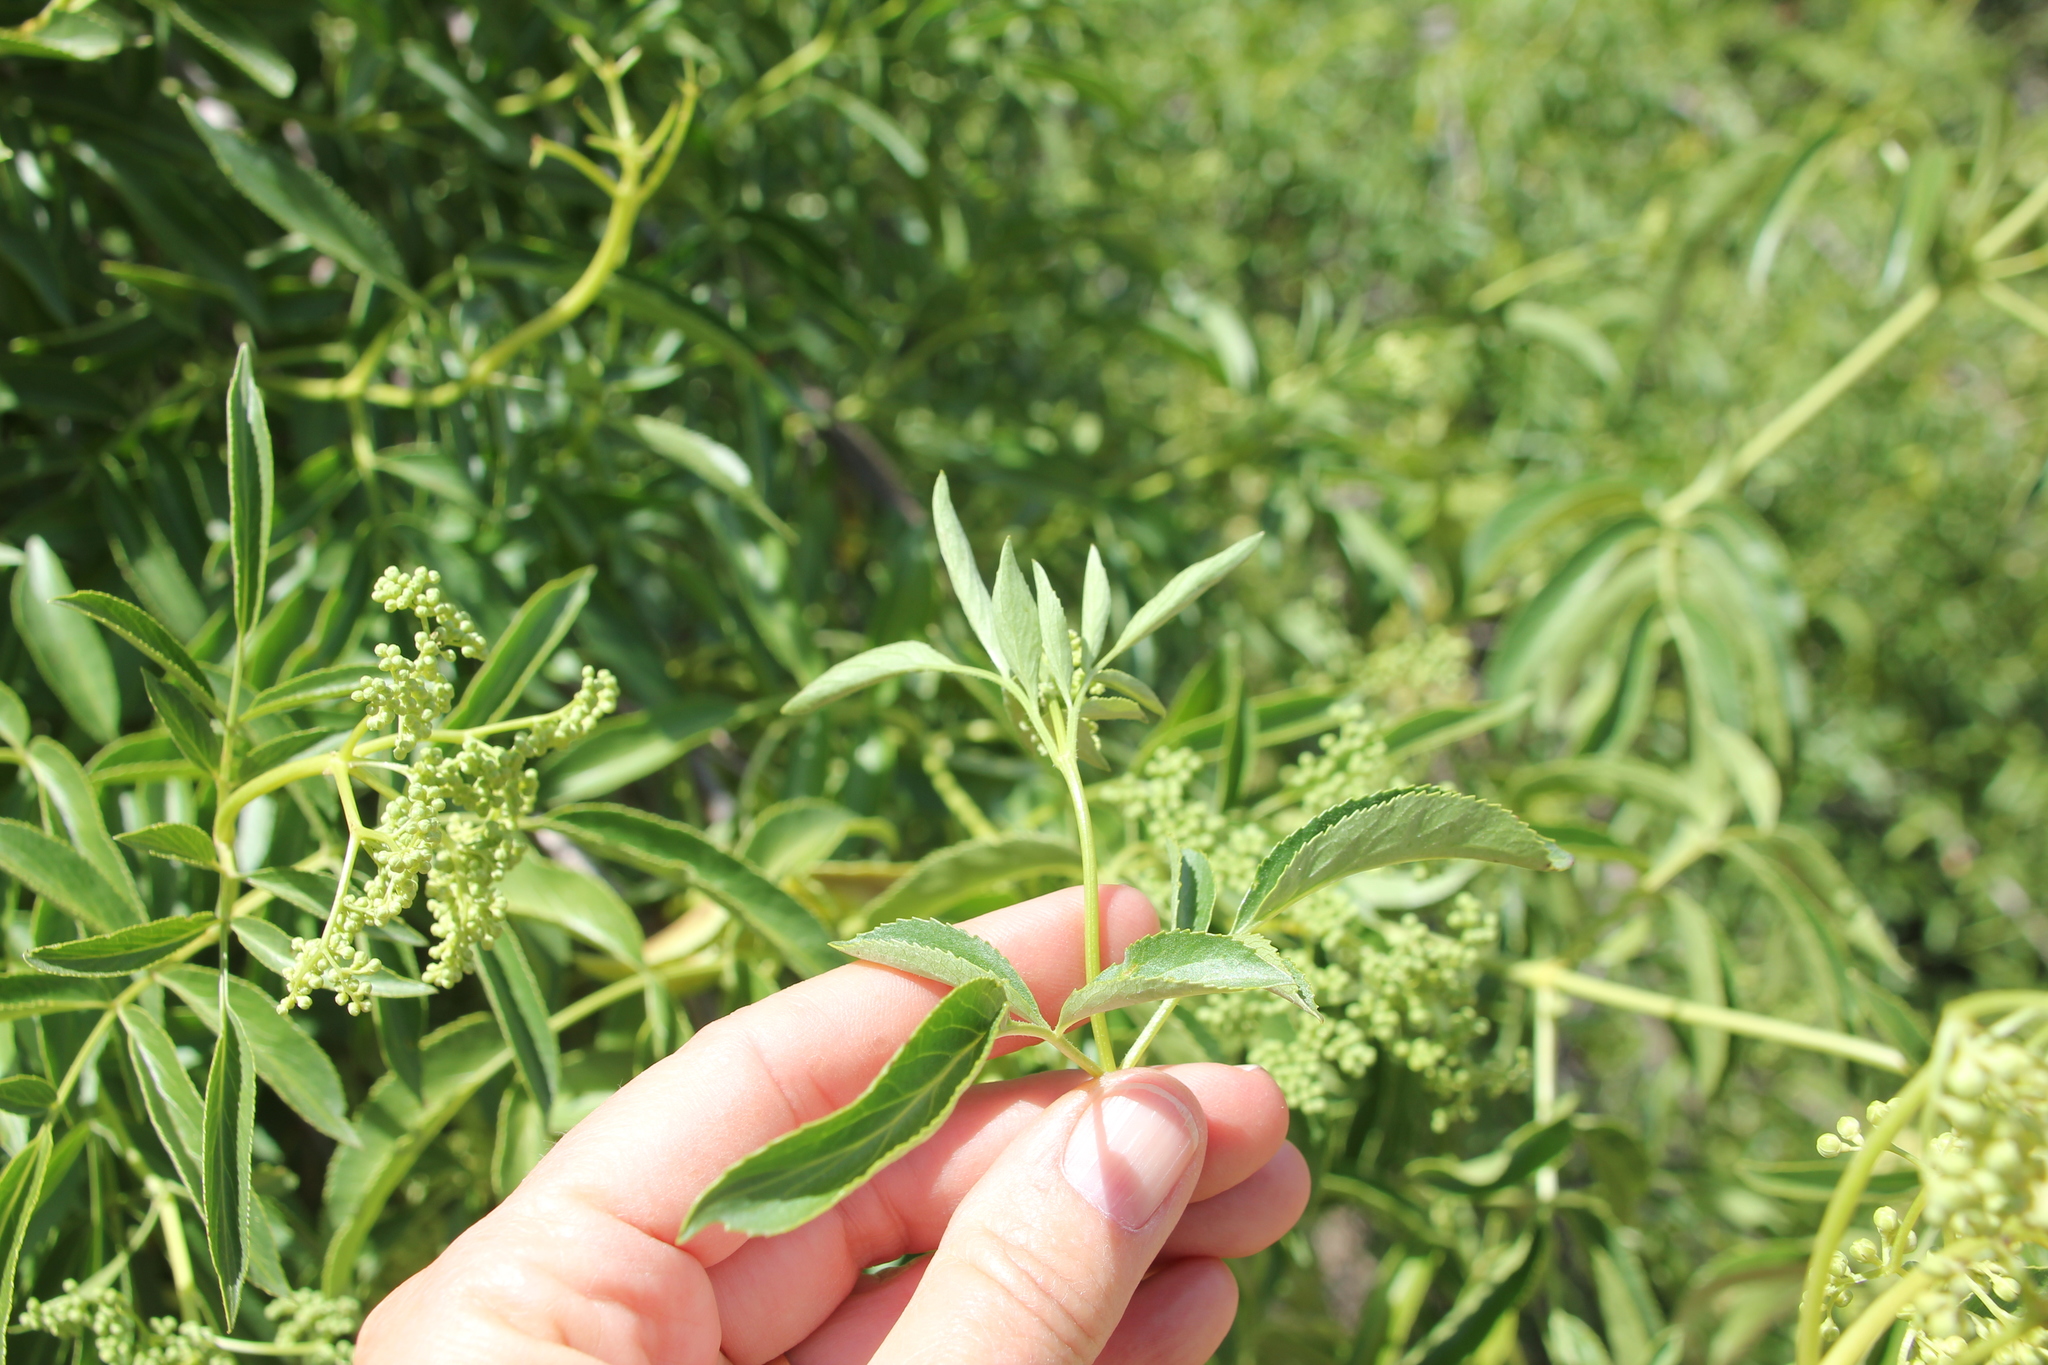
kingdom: Plantae
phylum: Tracheophyta
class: Magnoliopsida
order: Dipsacales
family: Viburnaceae
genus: Sambucus
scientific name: Sambucus cerulea
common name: Blue elder
